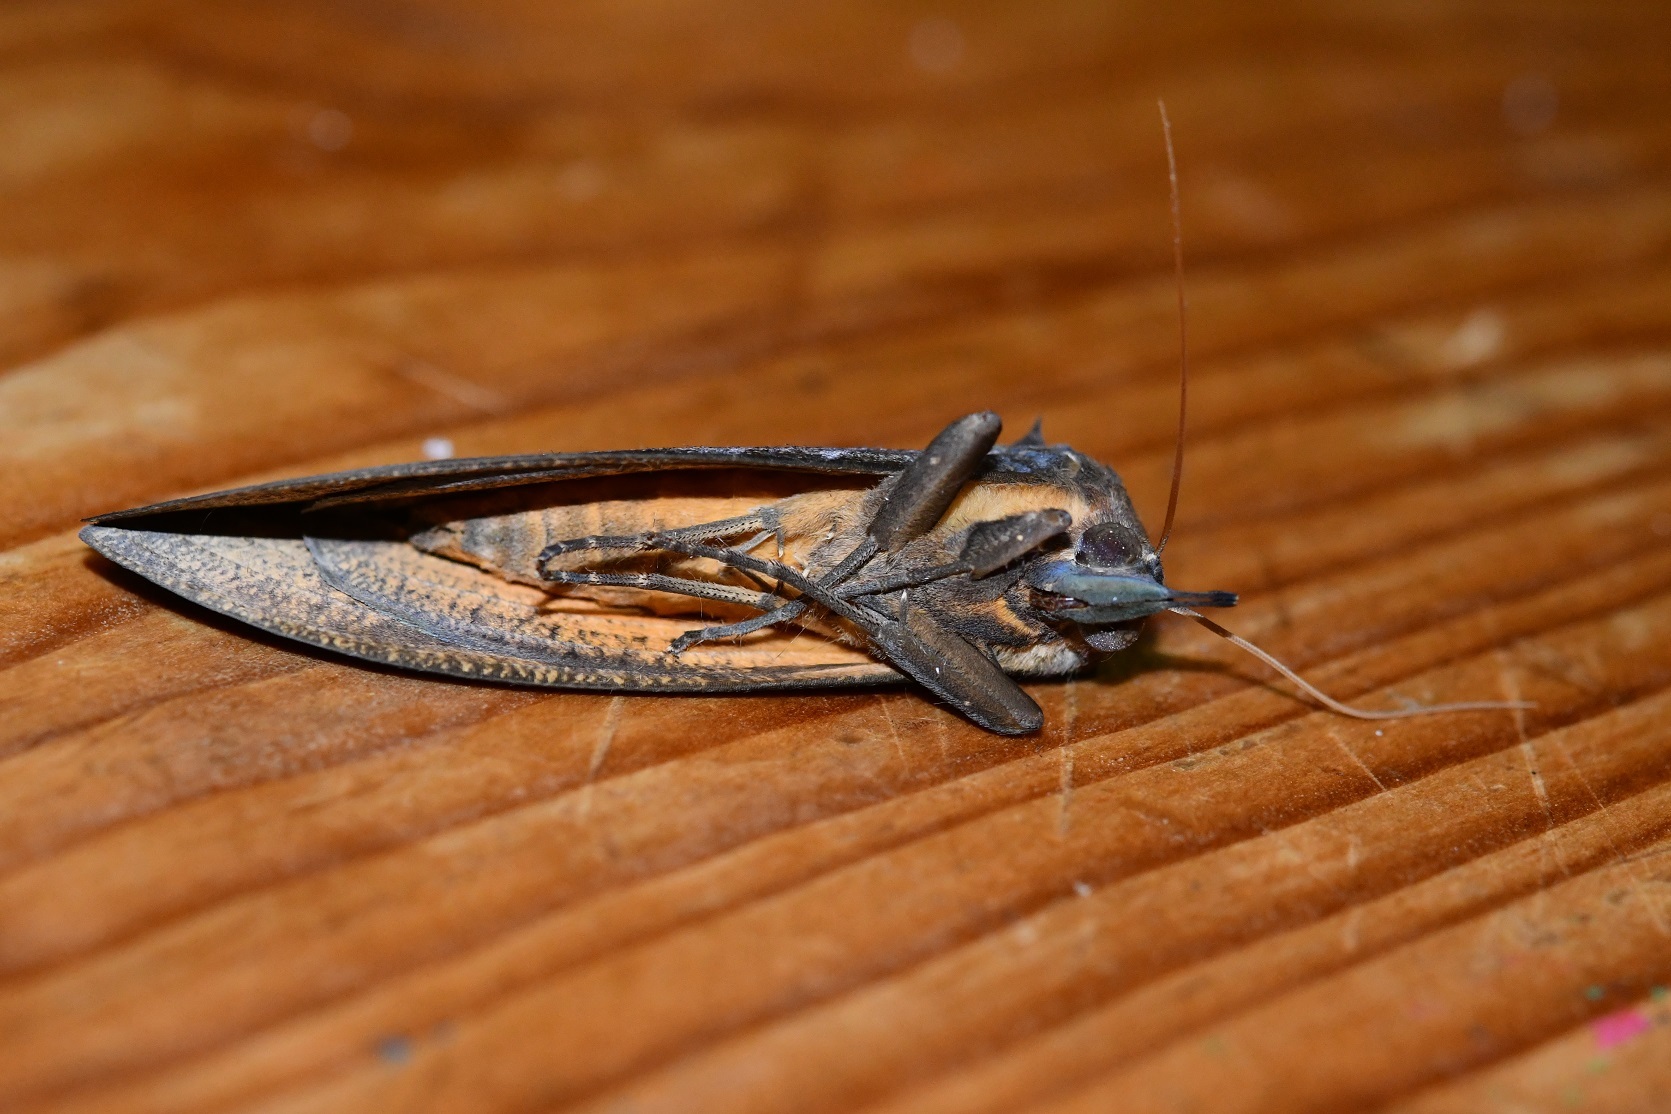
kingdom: Animalia
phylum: Arthropoda
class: Insecta
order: Lepidoptera
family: Erebidae
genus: Eudocima
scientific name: Eudocima serpentifera
